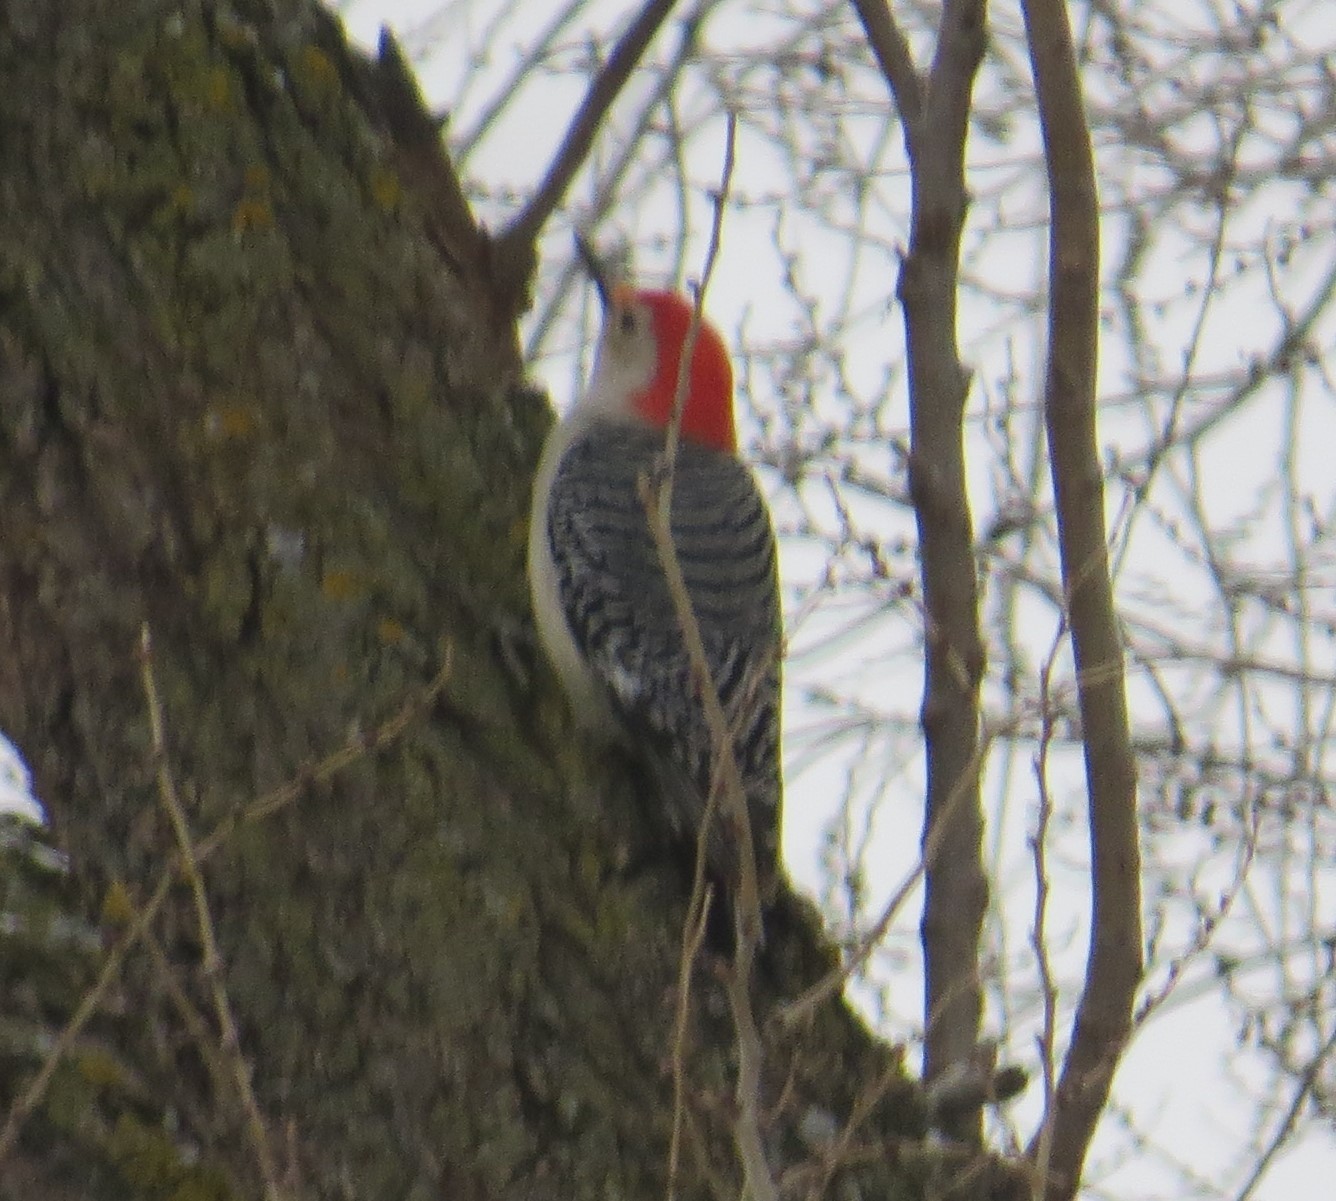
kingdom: Animalia
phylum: Chordata
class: Aves
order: Piciformes
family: Picidae
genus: Melanerpes
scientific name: Melanerpes carolinus
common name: Red-bellied woodpecker
